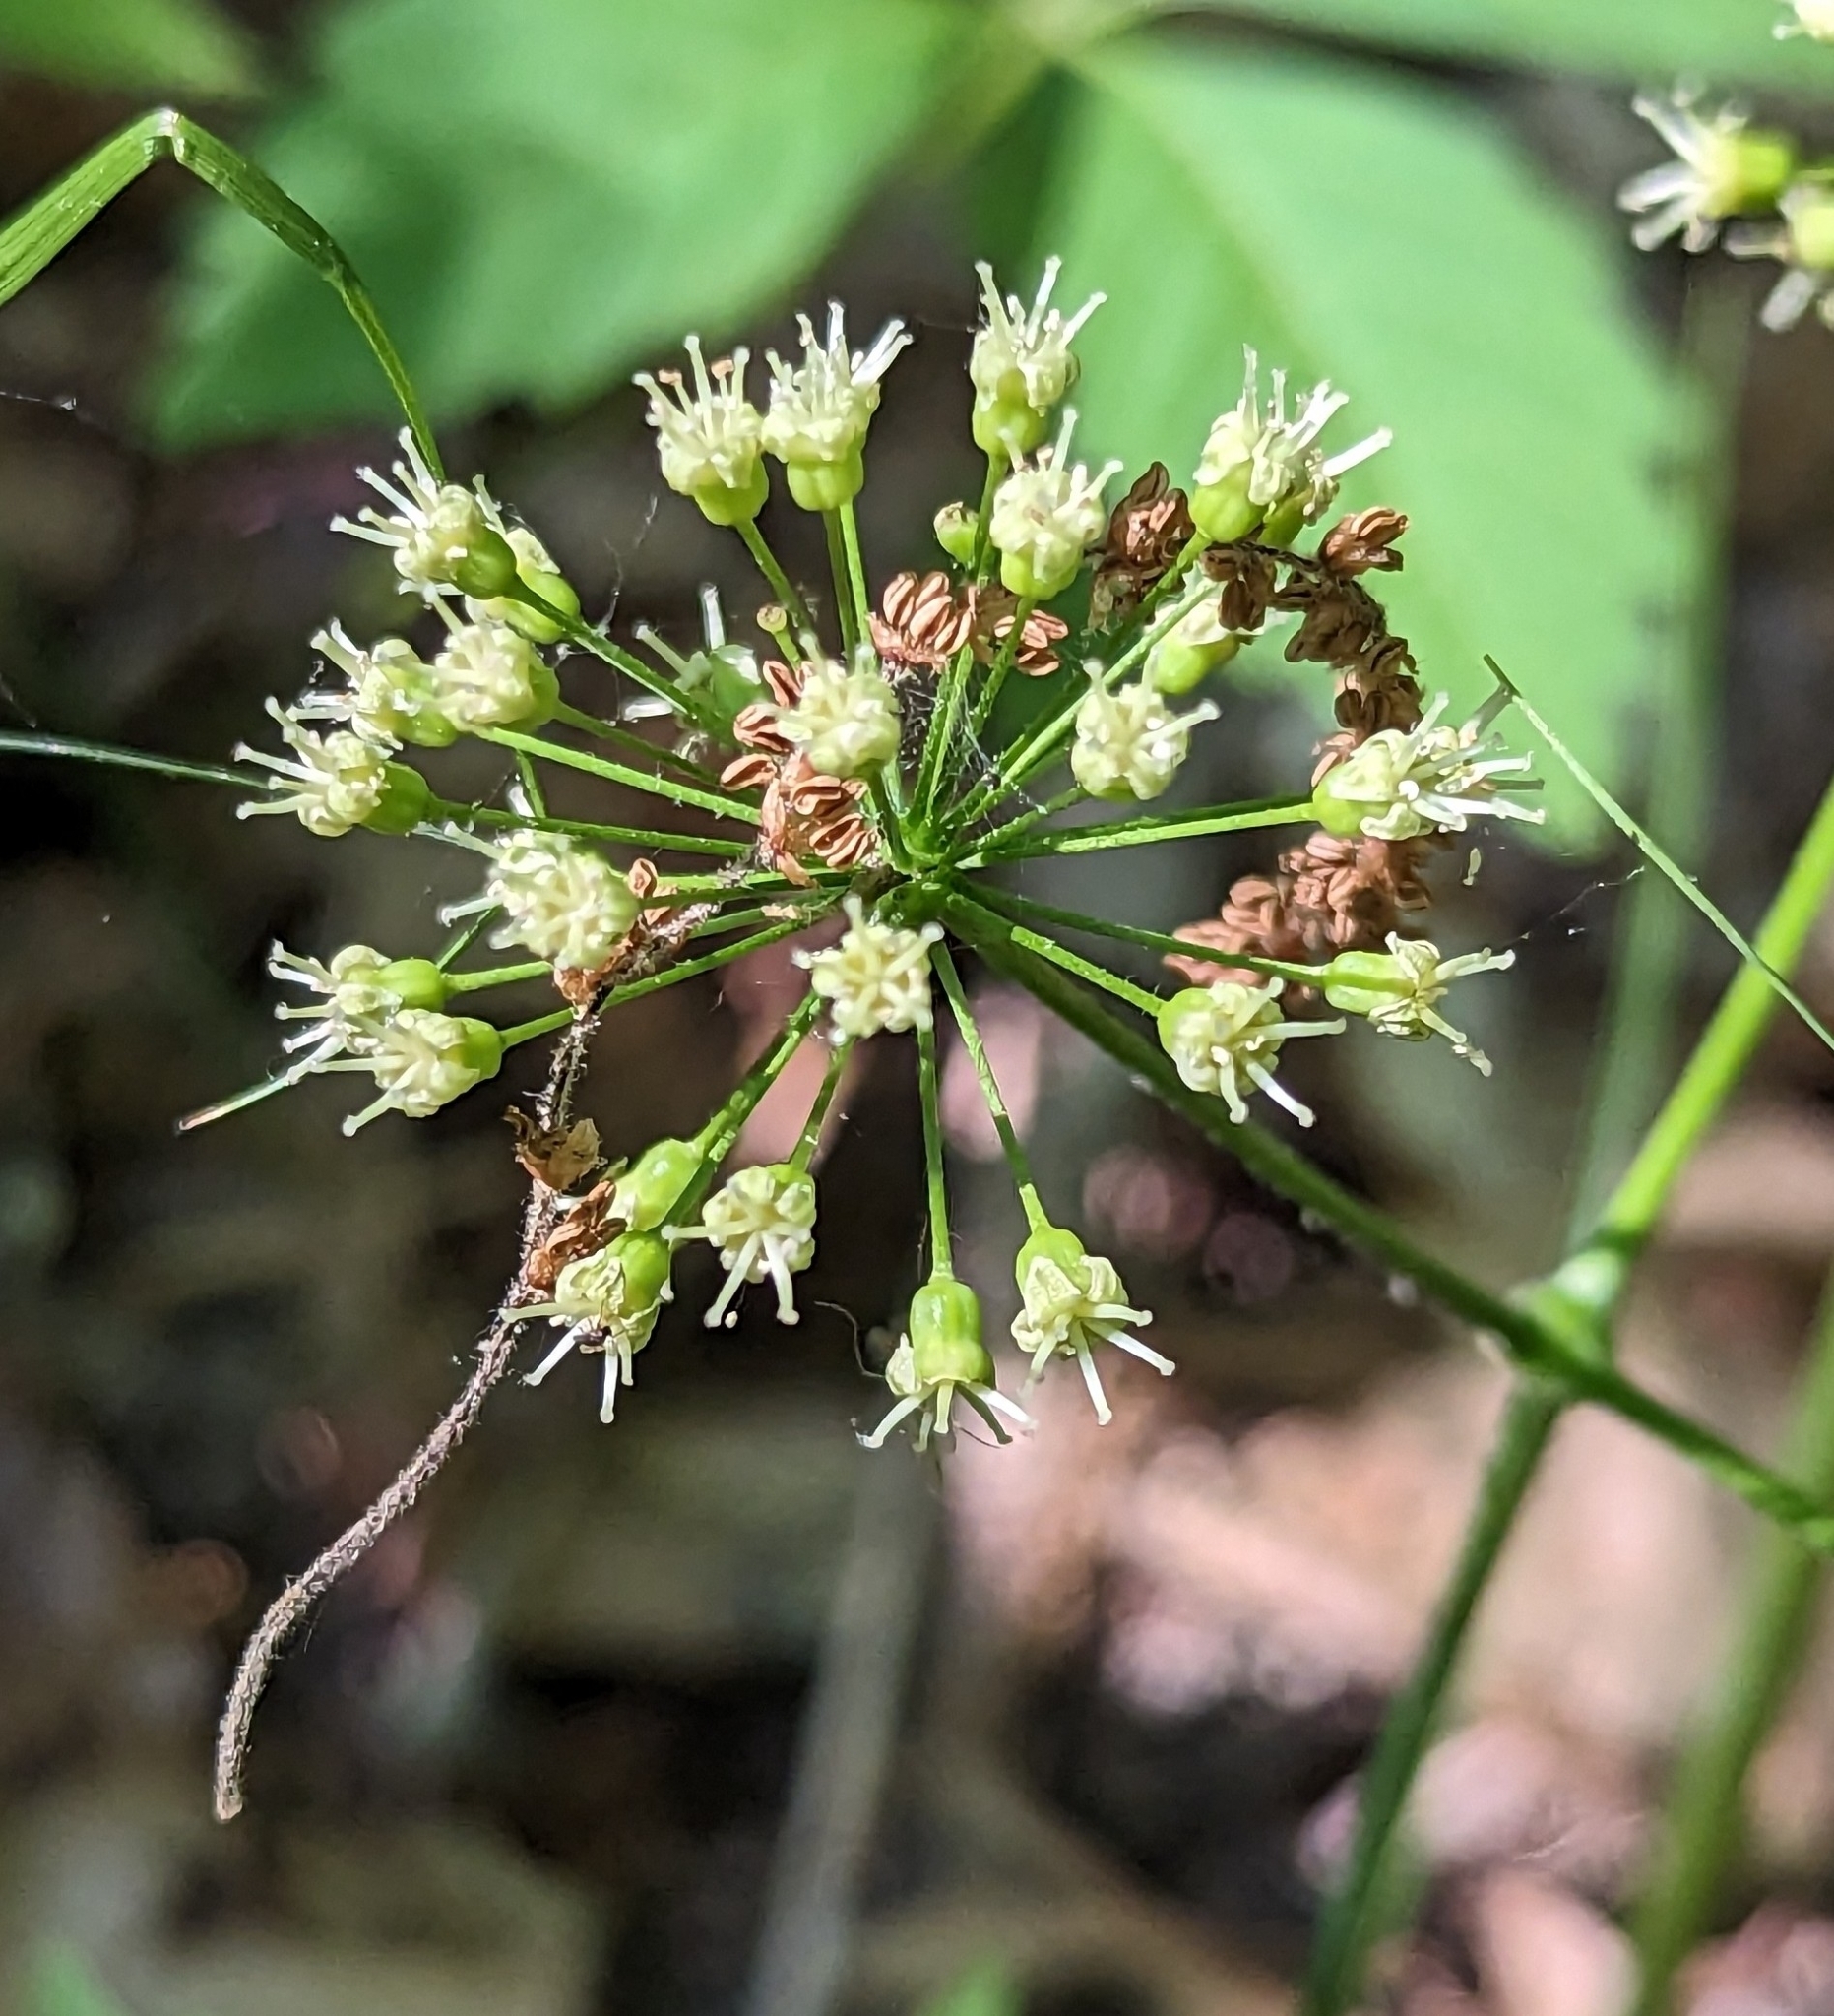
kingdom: Plantae
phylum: Tracheophyta
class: Magnoliopsida
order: Apiales
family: Araliaceae
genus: Aralia
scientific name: Aralia nudicaulis
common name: Wild sarsaparilla
